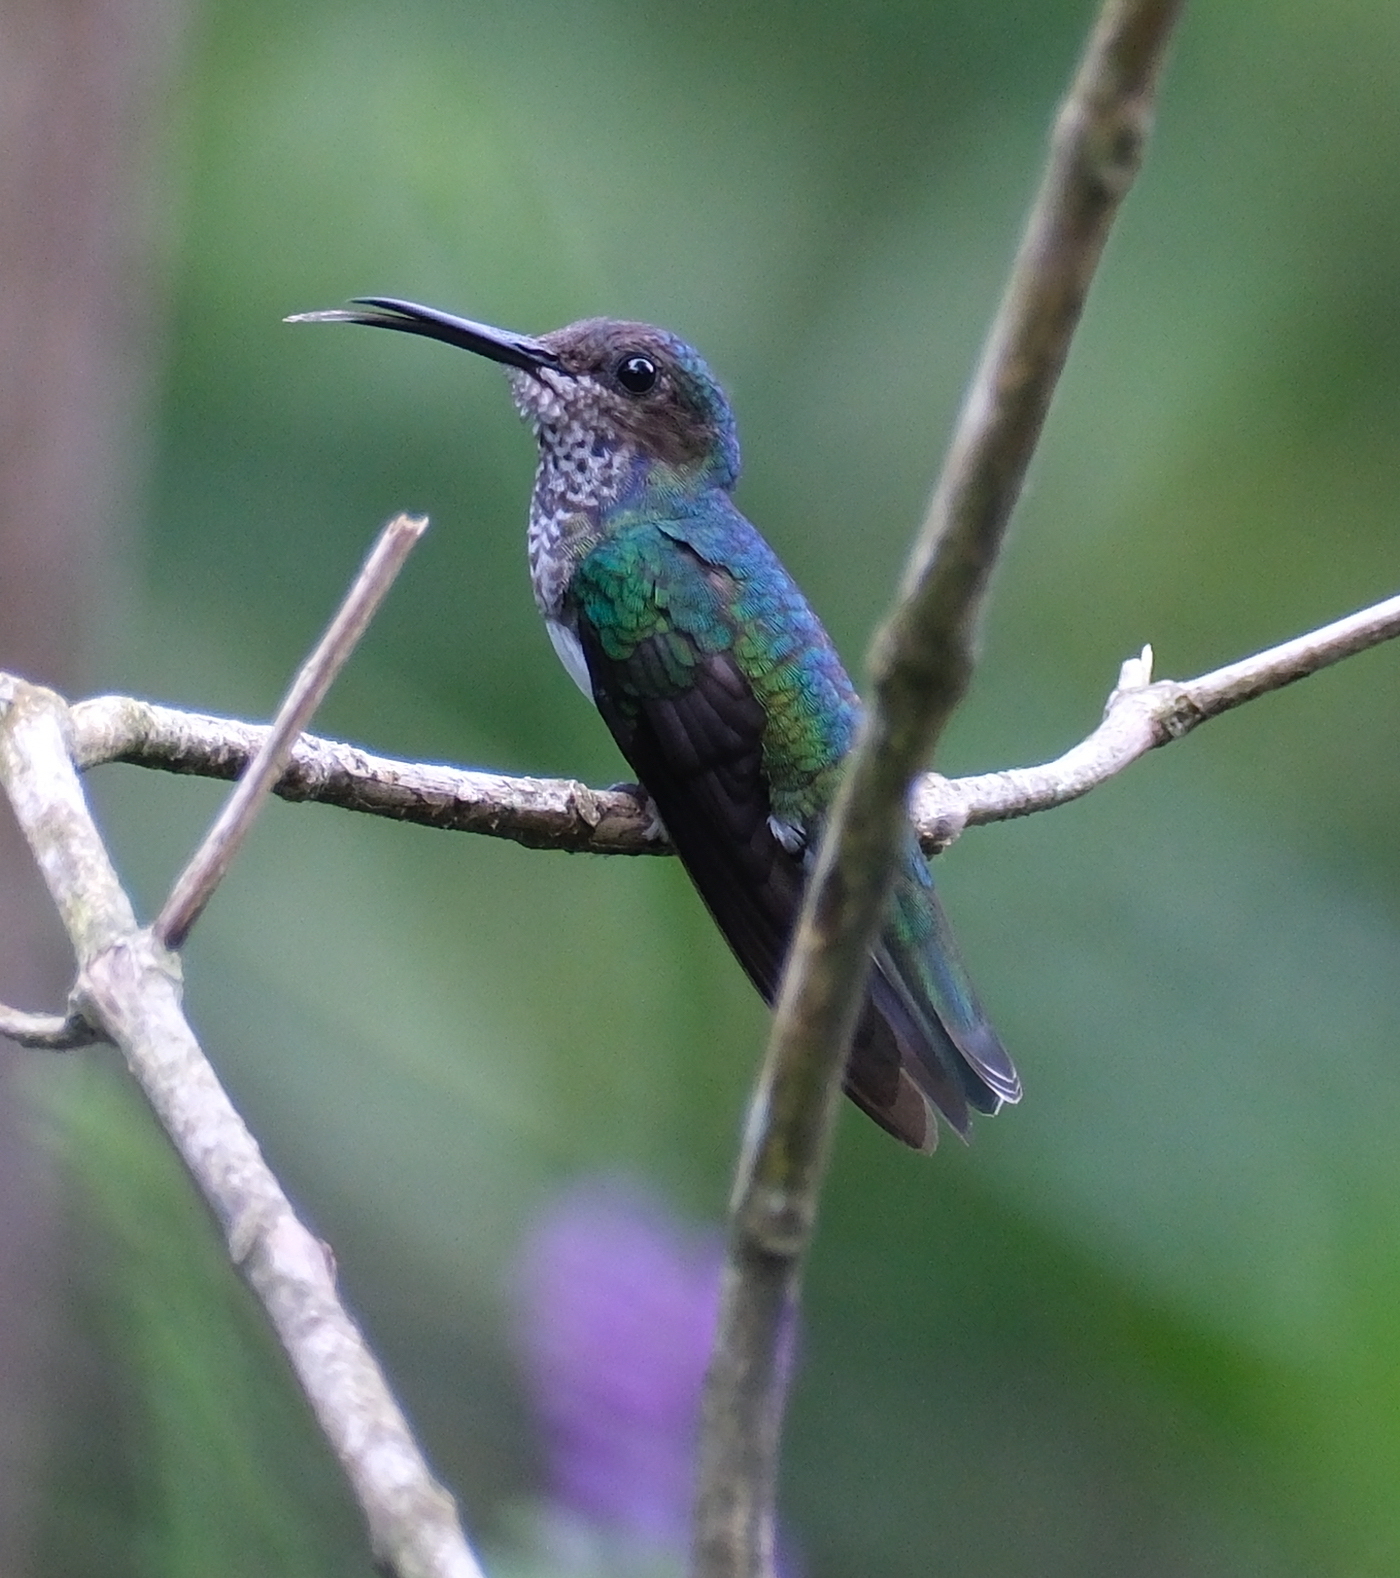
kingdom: Animalia
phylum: Chordata
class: Aves
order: Apodiformes
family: Trochilidae
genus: Florisuga
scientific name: Florisuga mellivora
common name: White-necked jacobin
